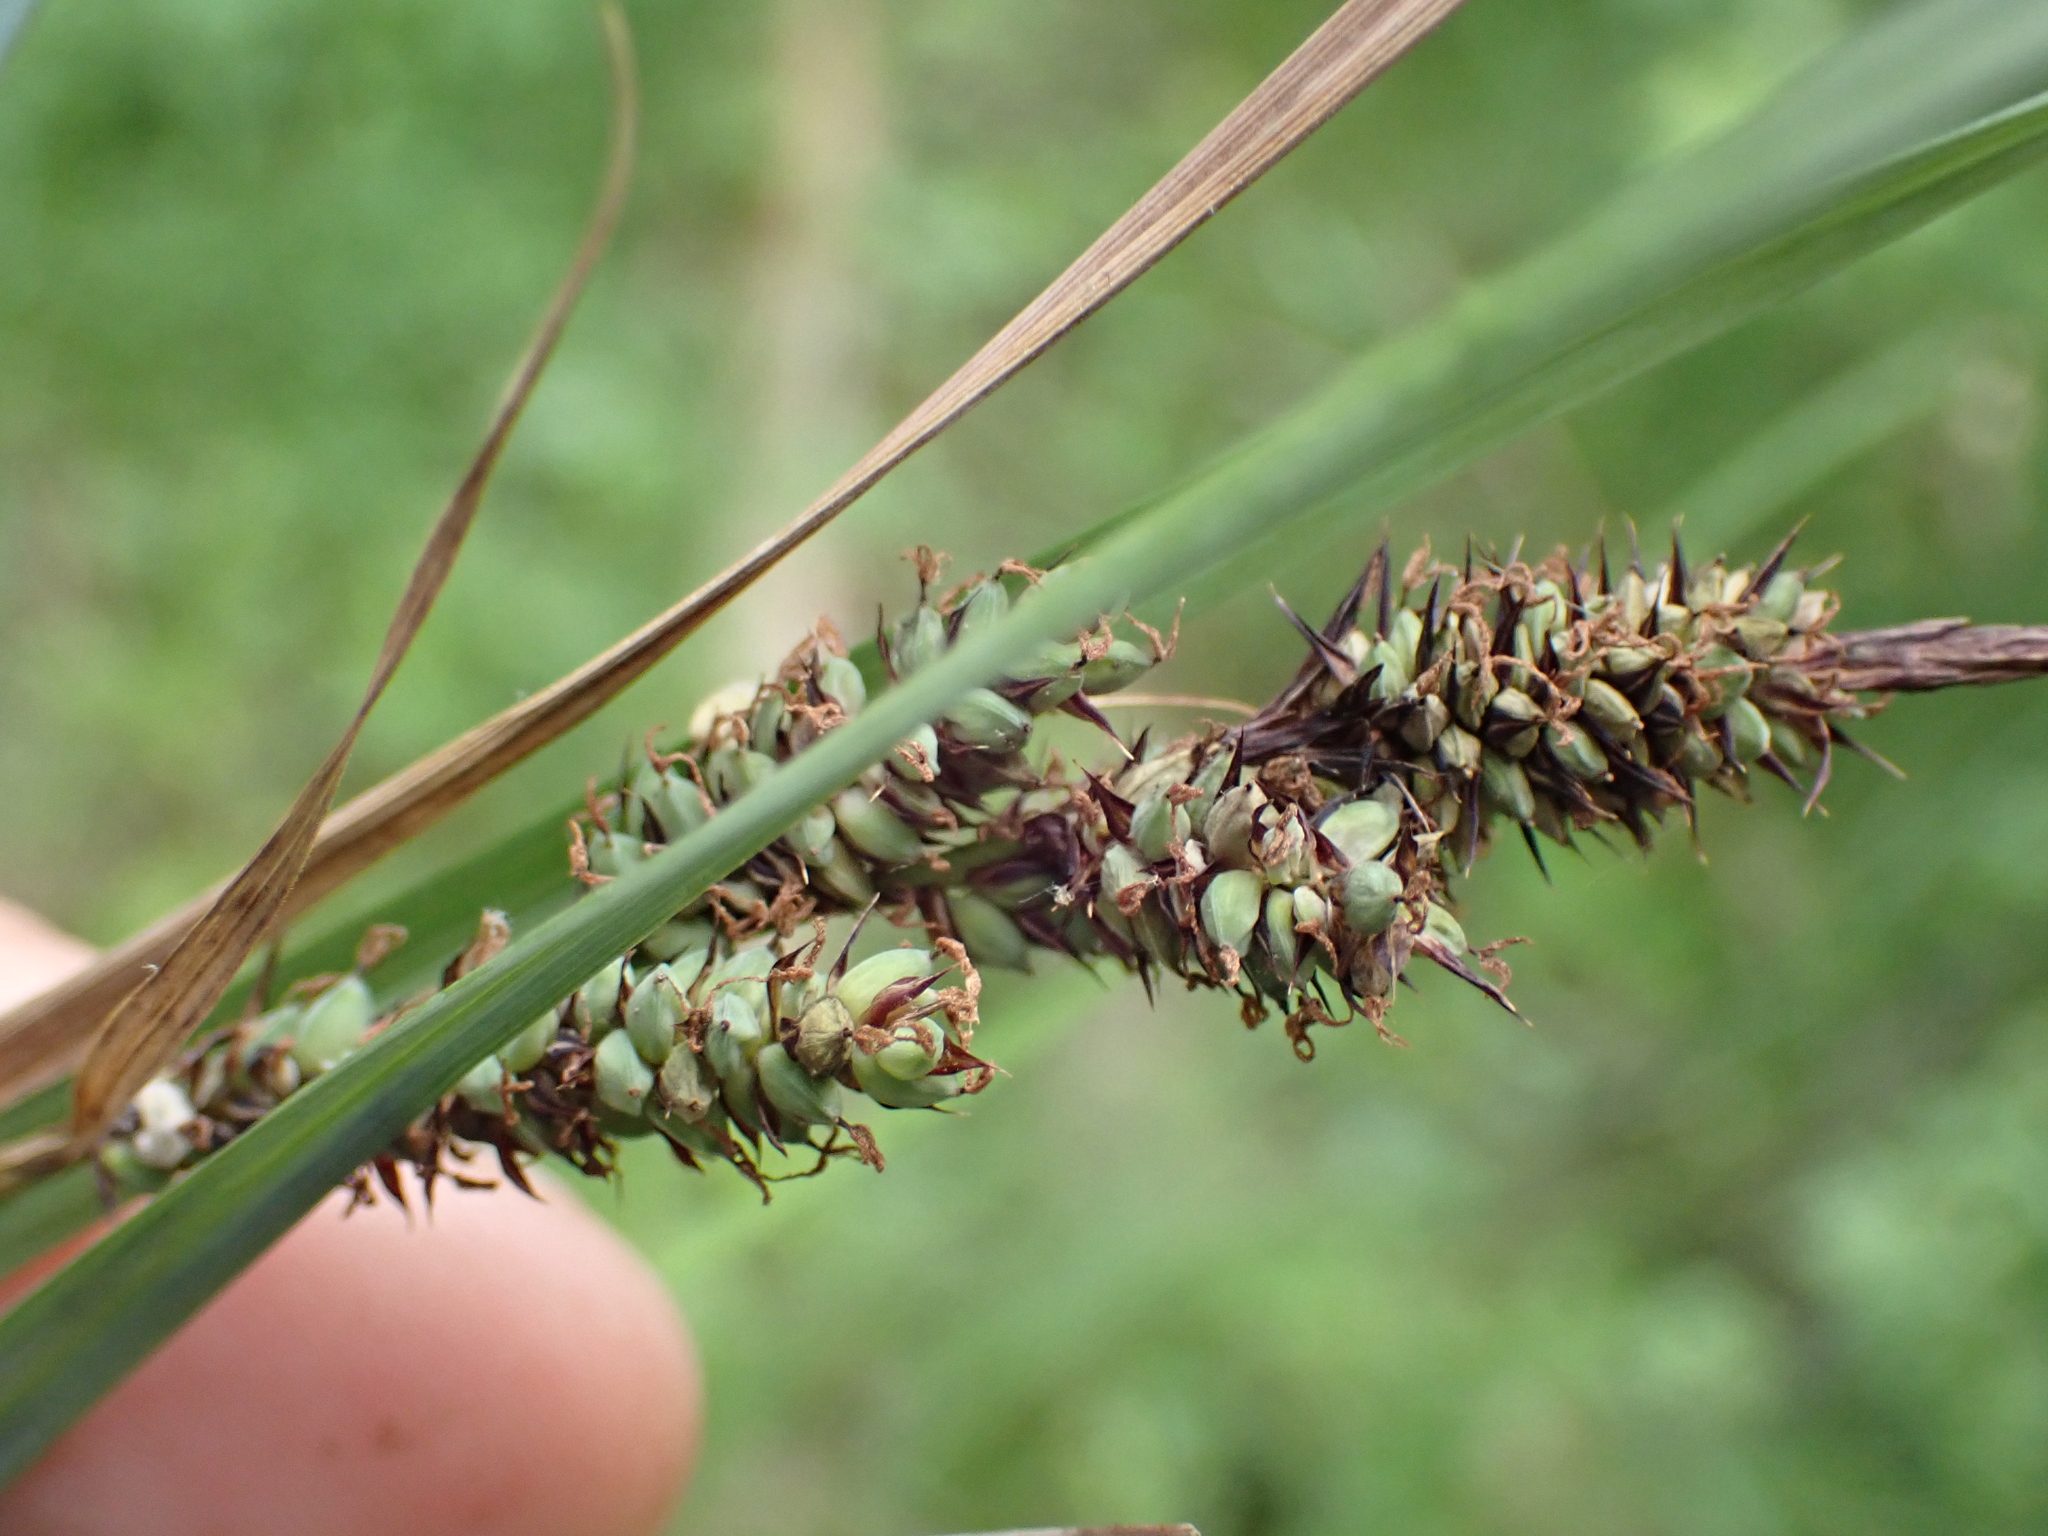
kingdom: Plantae
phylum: Tracheophyta
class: Liliopsida
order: Poales
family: Cyperaceae
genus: Carex
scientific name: Carex buxbaumii
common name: Club sedge
